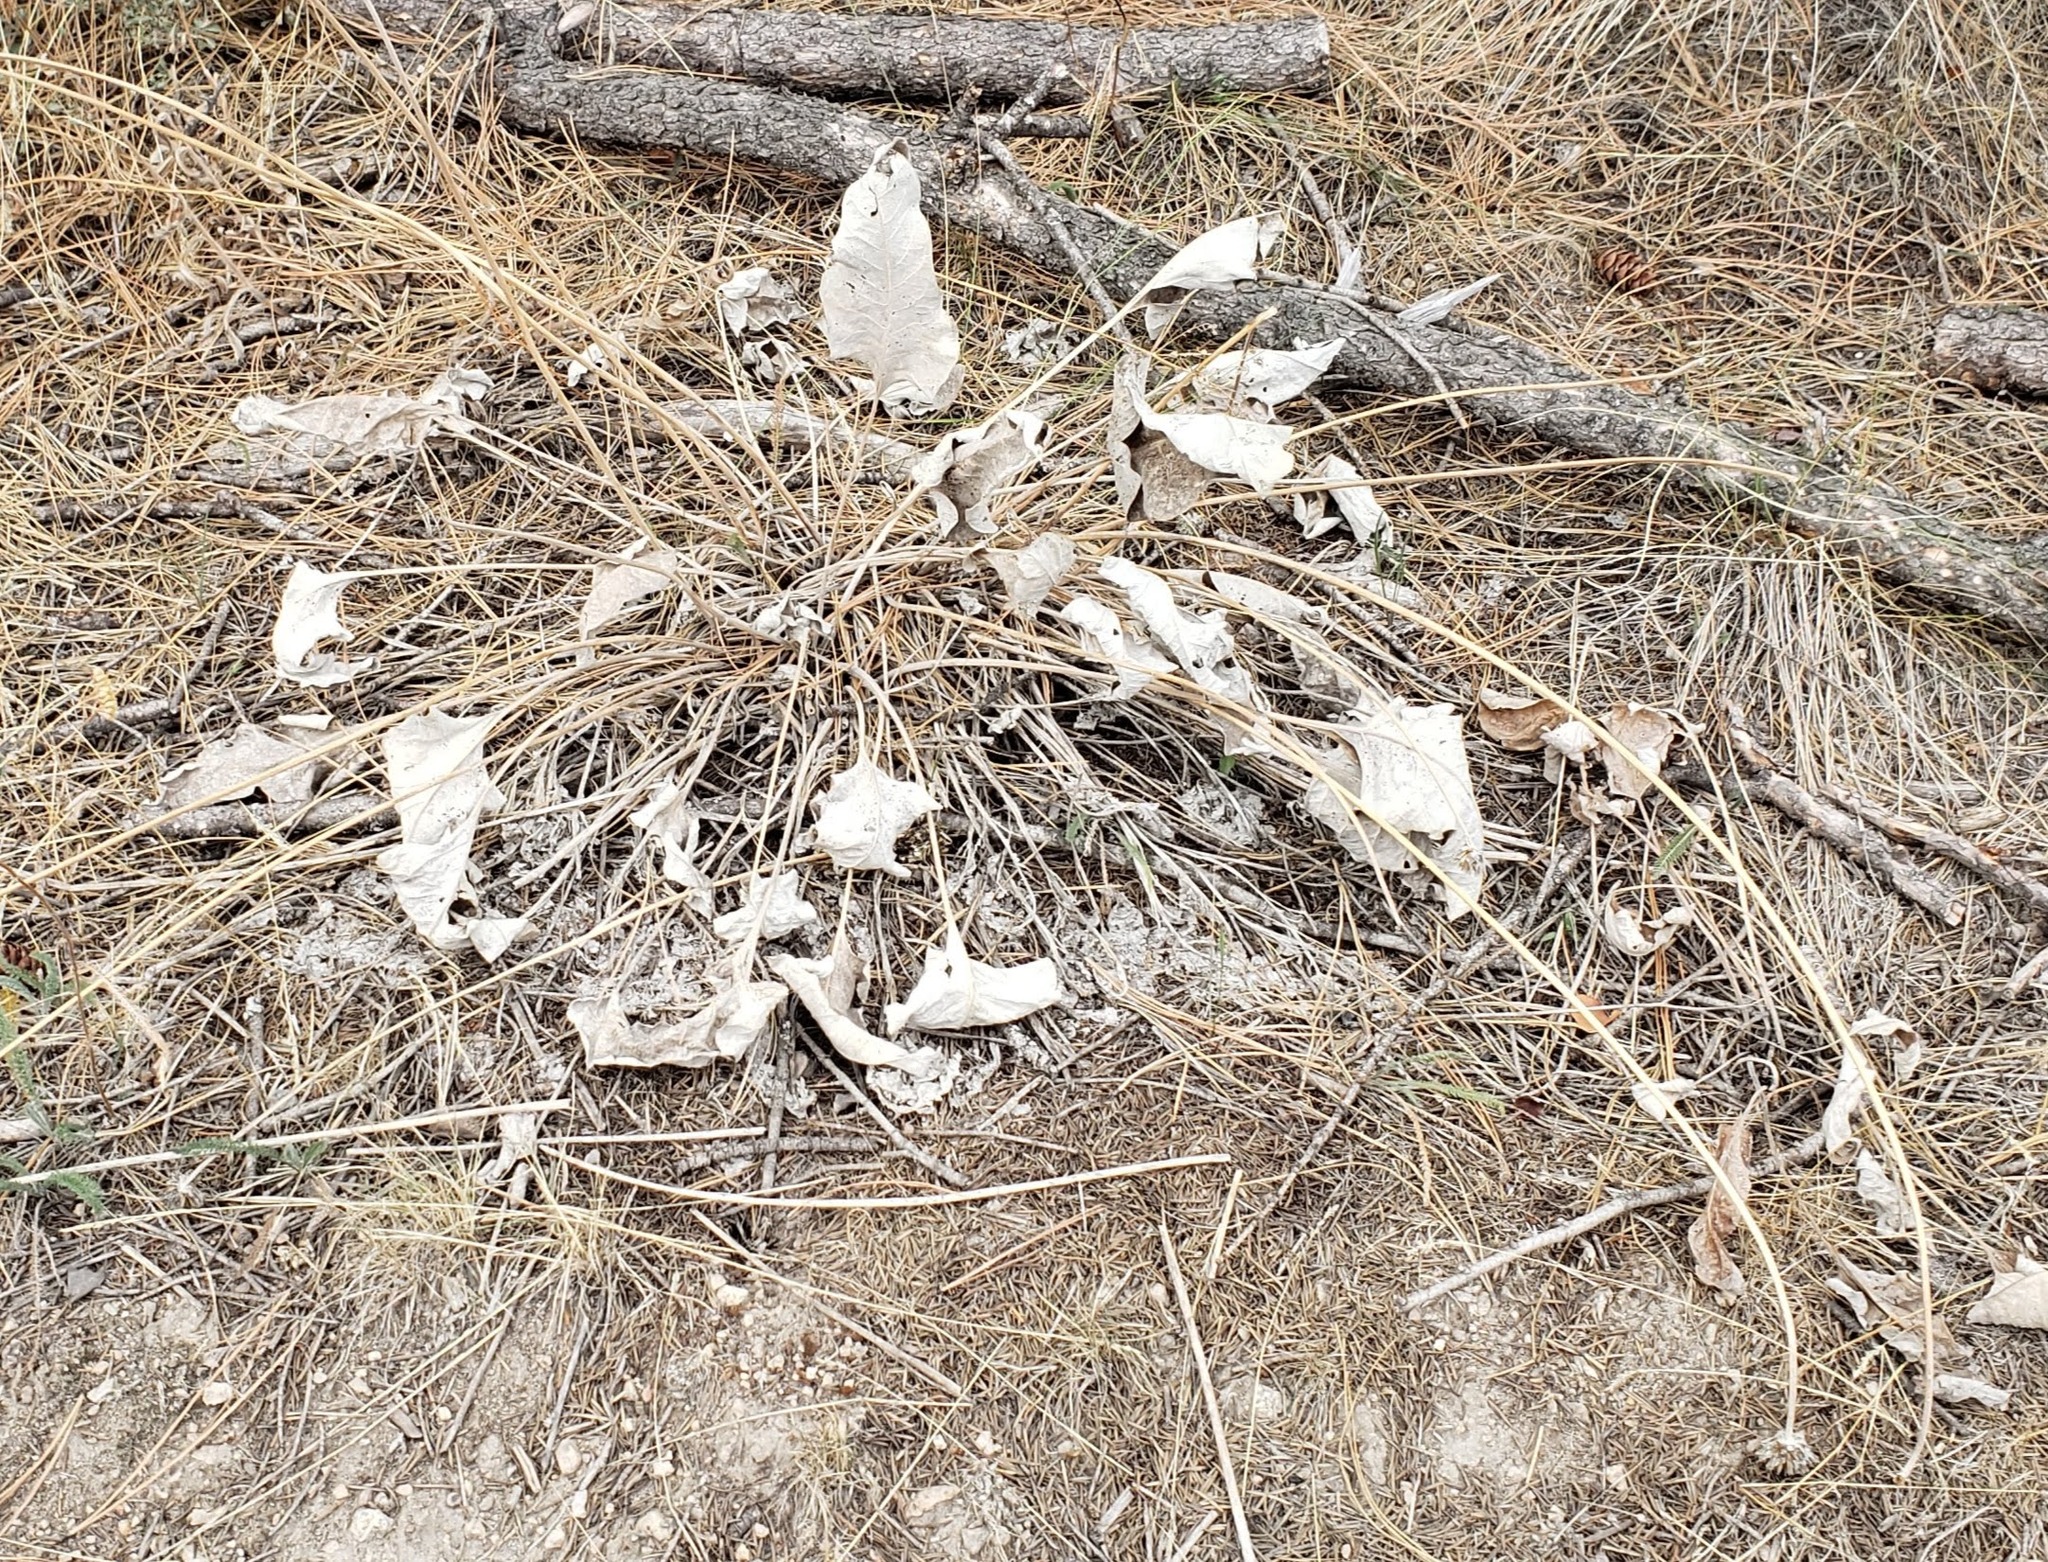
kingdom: Plantae
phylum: Tracheophyta
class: Magnoliopsida
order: Asterales
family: Asteraceae
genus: Wyethia
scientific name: Wyethia sagittata
